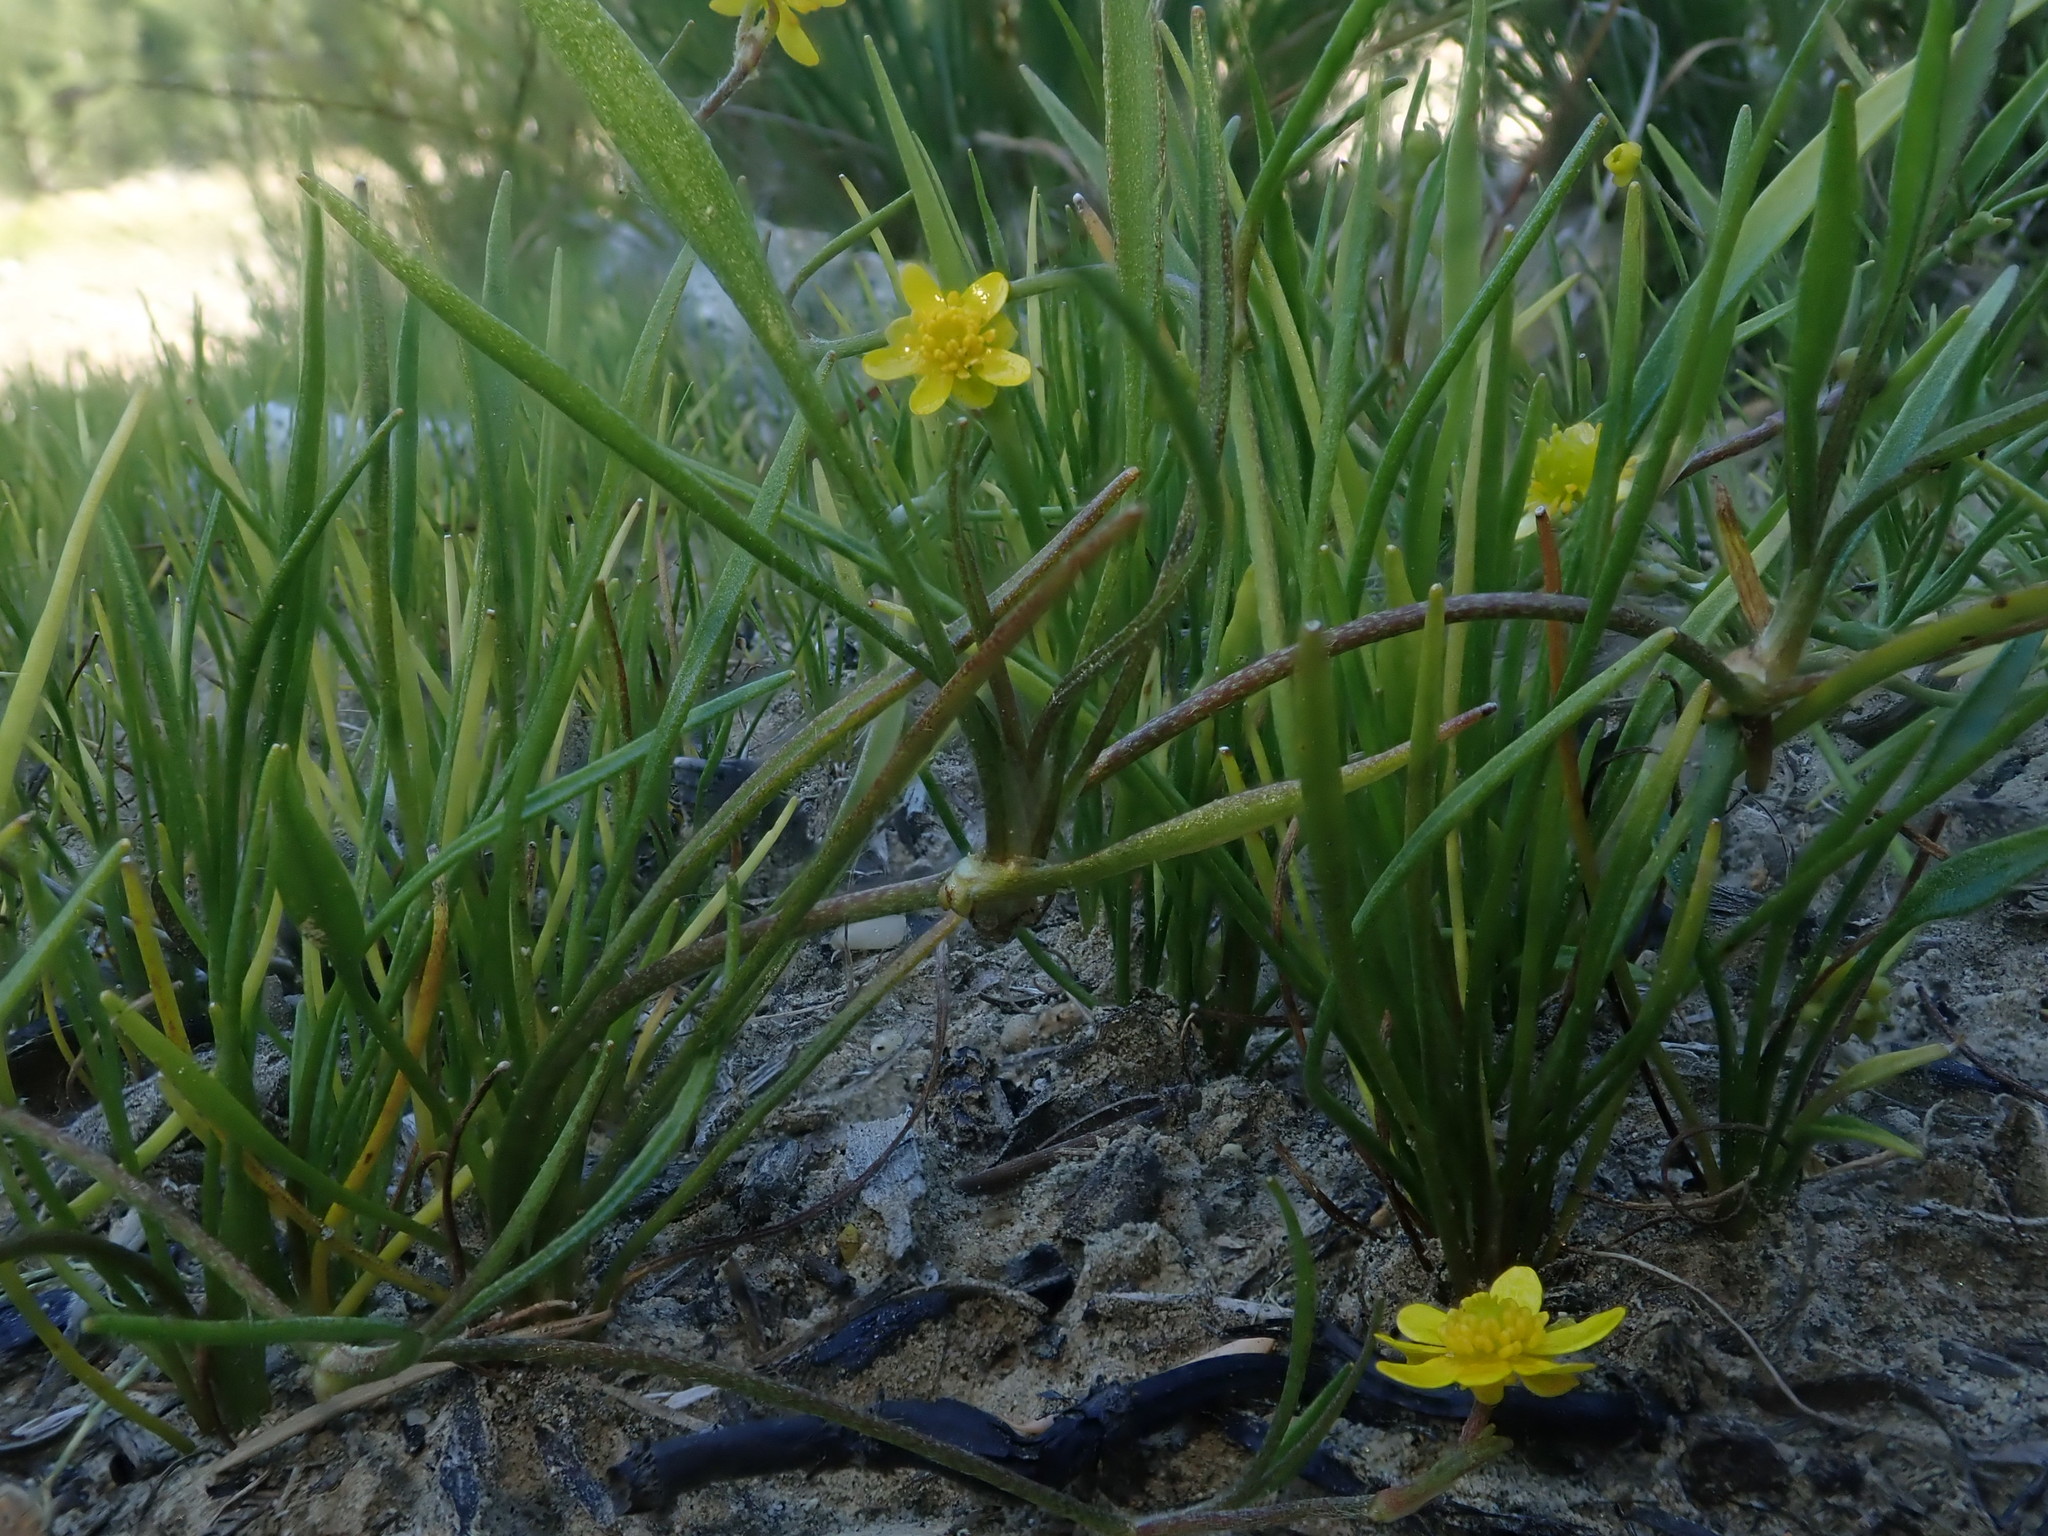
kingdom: Plantae
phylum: Tracheophyta
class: Magnoliopsida
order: Ranunculales
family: Ranunculaceae
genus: Ranunculus
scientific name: Ranunculus flammula
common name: Lesser spearwort
